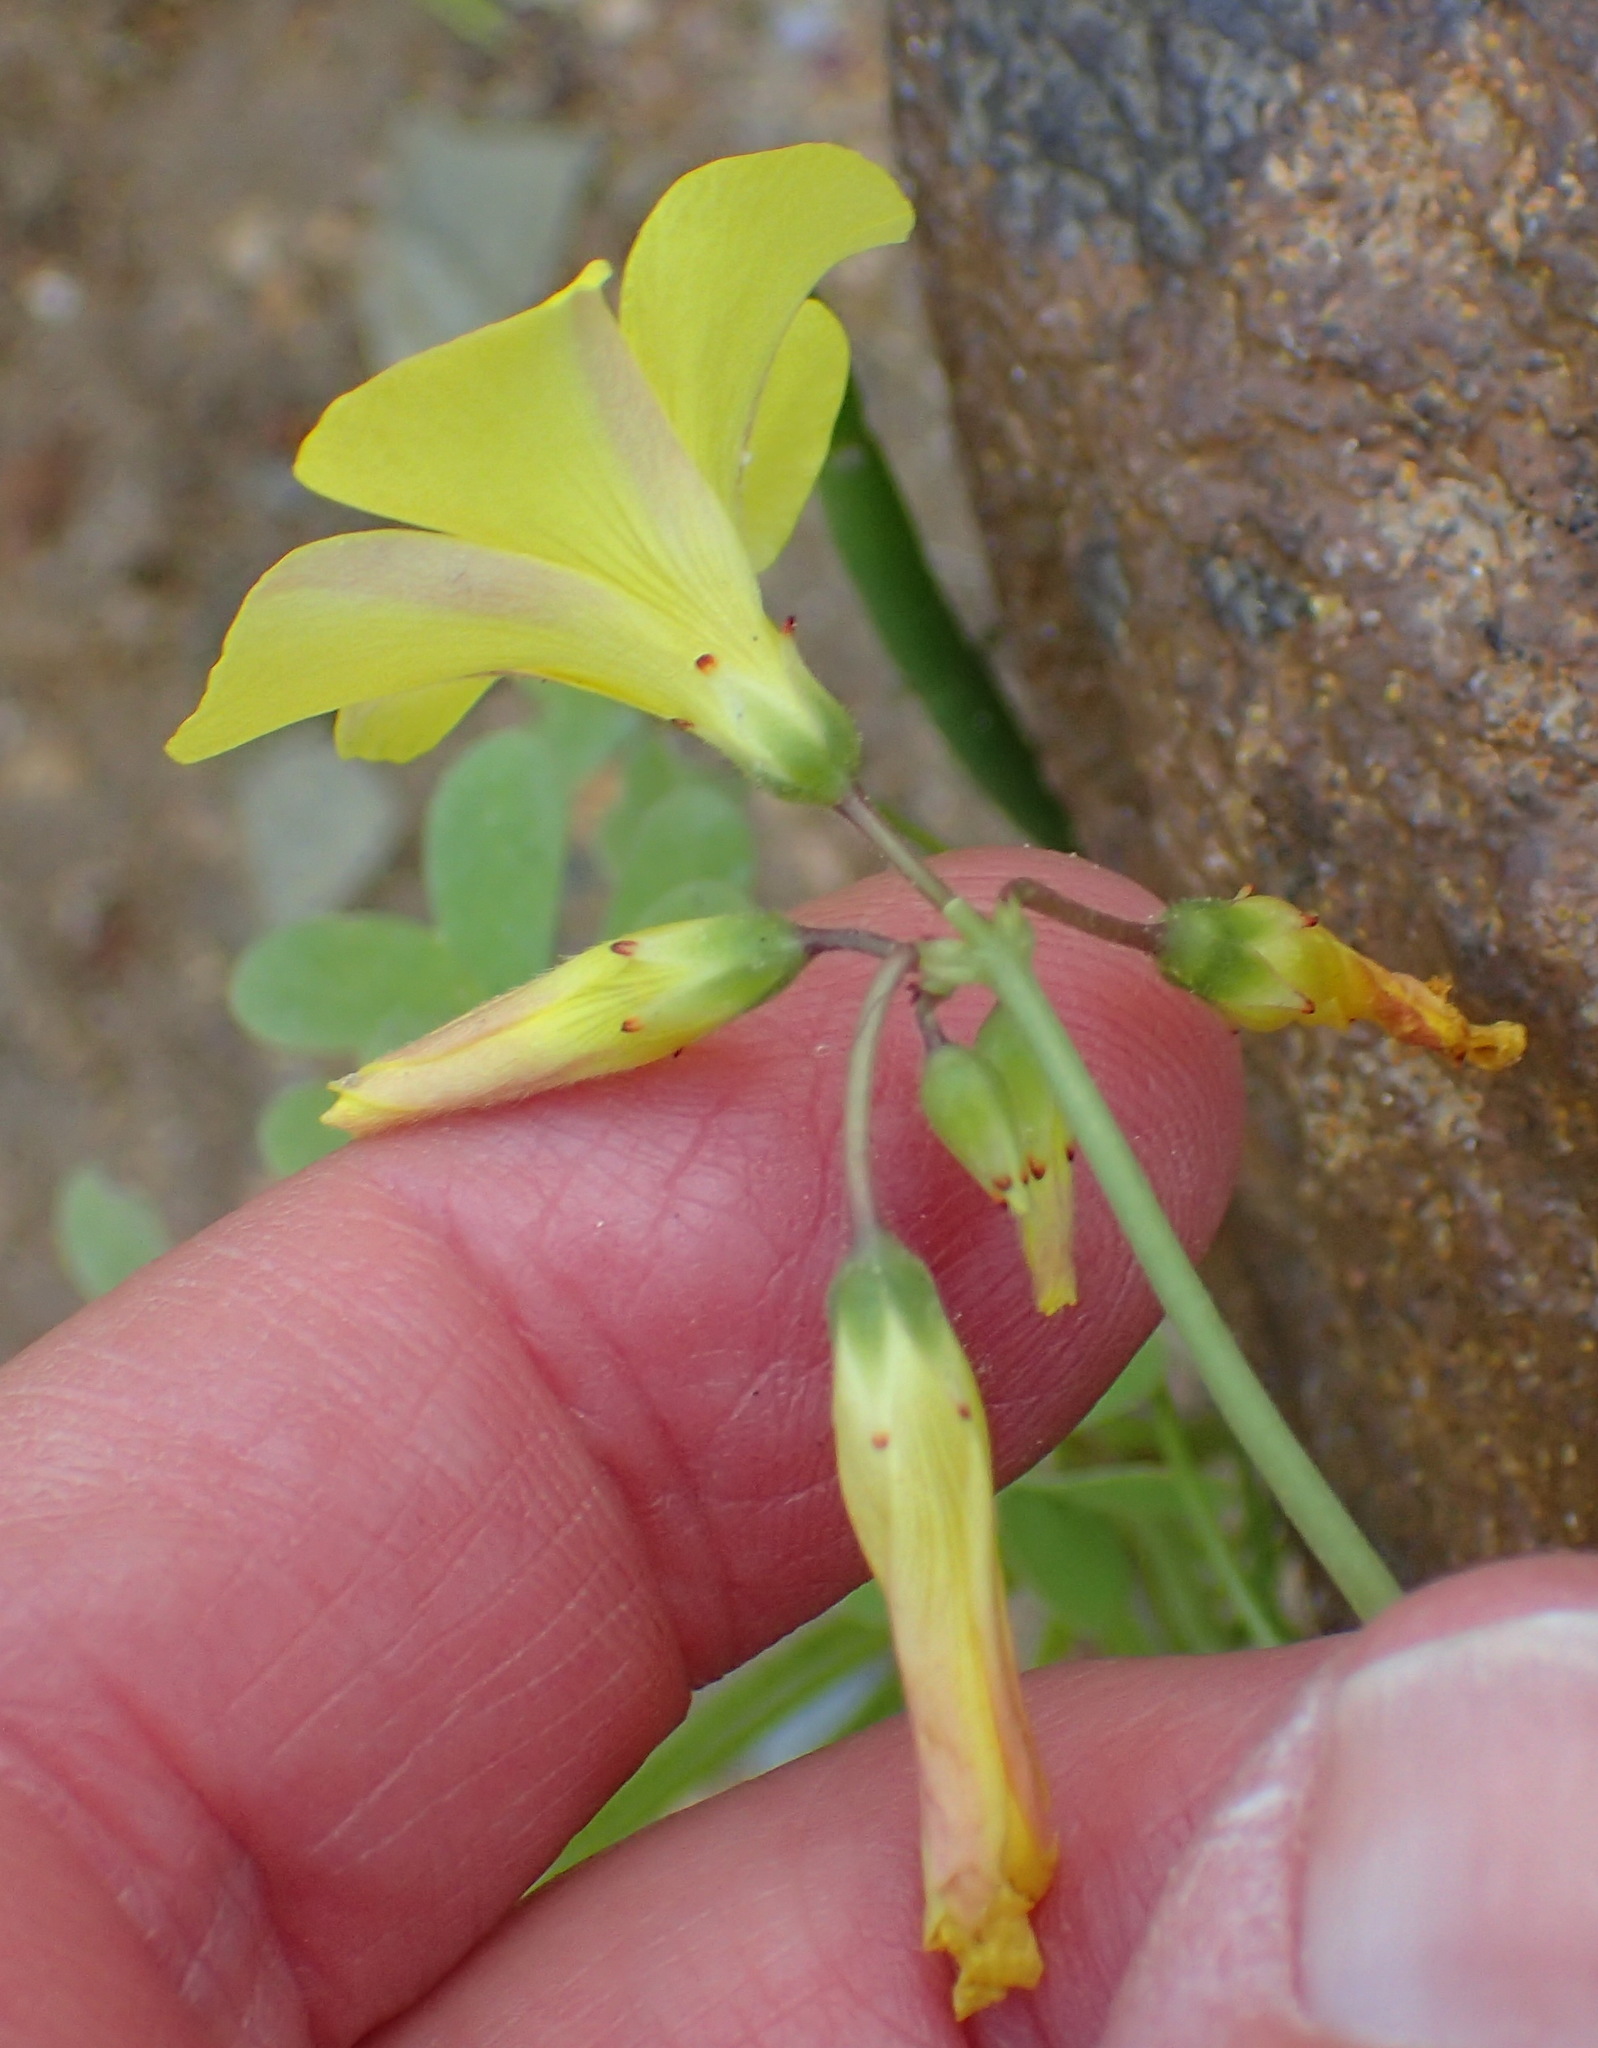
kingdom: Plantae
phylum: Tracheophyta
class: Magnoliopsida
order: Oxalidales
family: Oxalidaceae
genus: Oxalis
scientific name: Oxalis pes-caprae
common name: Bermuda-buttercup
